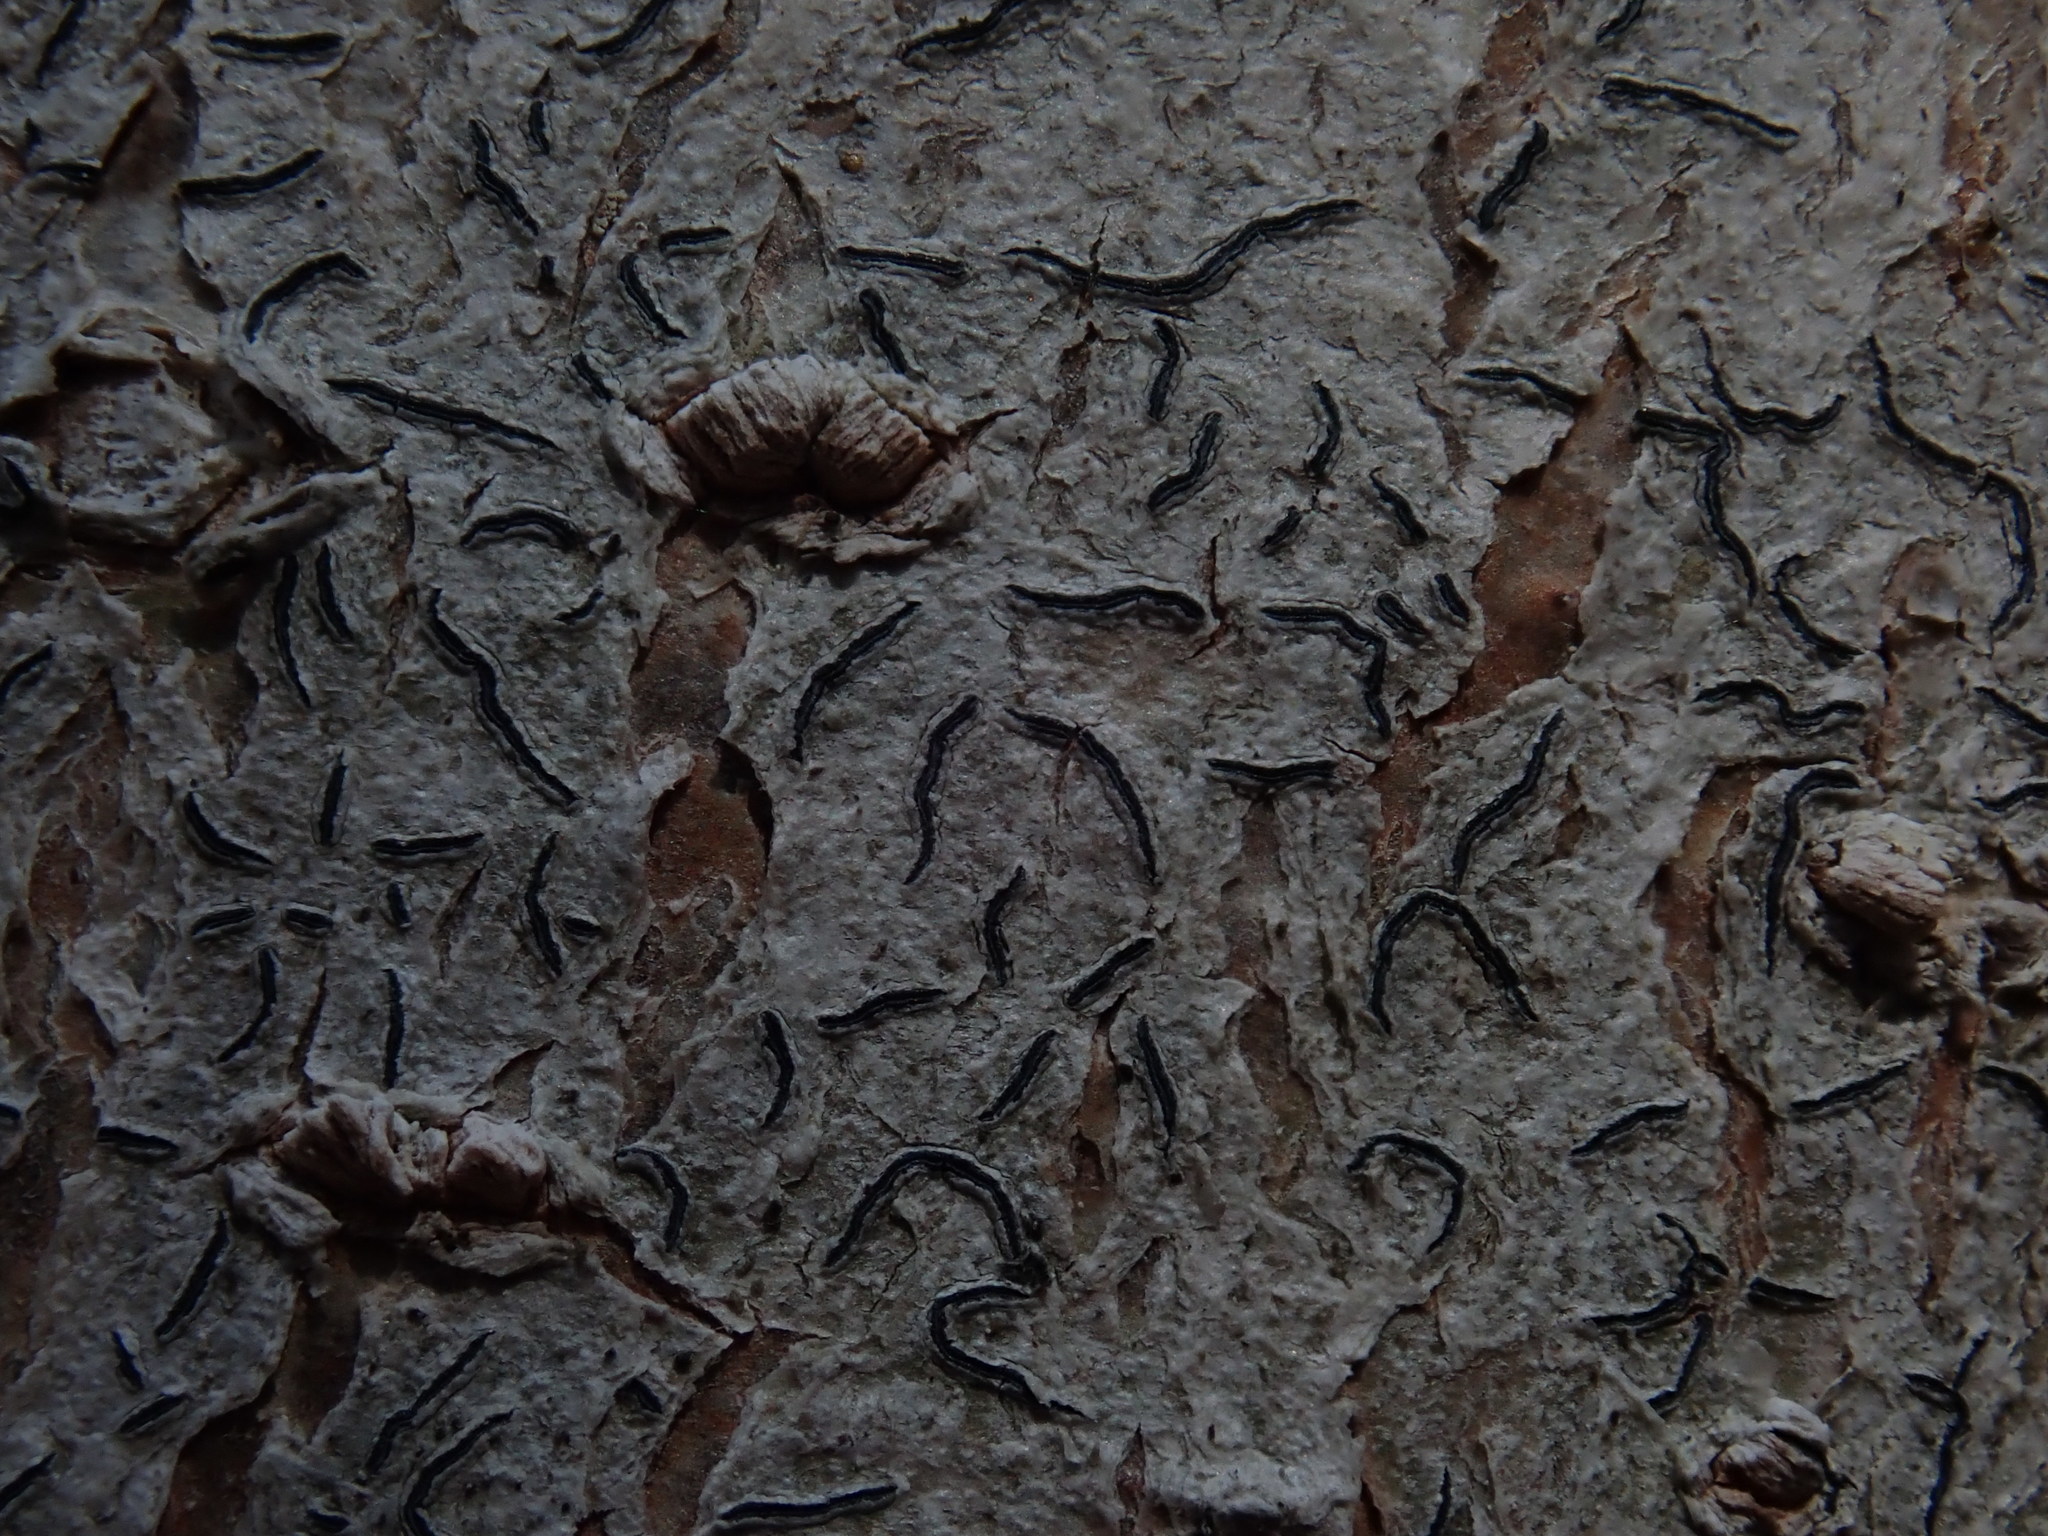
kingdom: Fungi
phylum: Ascomycota
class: Lecanoromycetes
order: Ostropales
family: Graphidaceae
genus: Graphis
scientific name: Graphis scripta
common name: Script lichen
